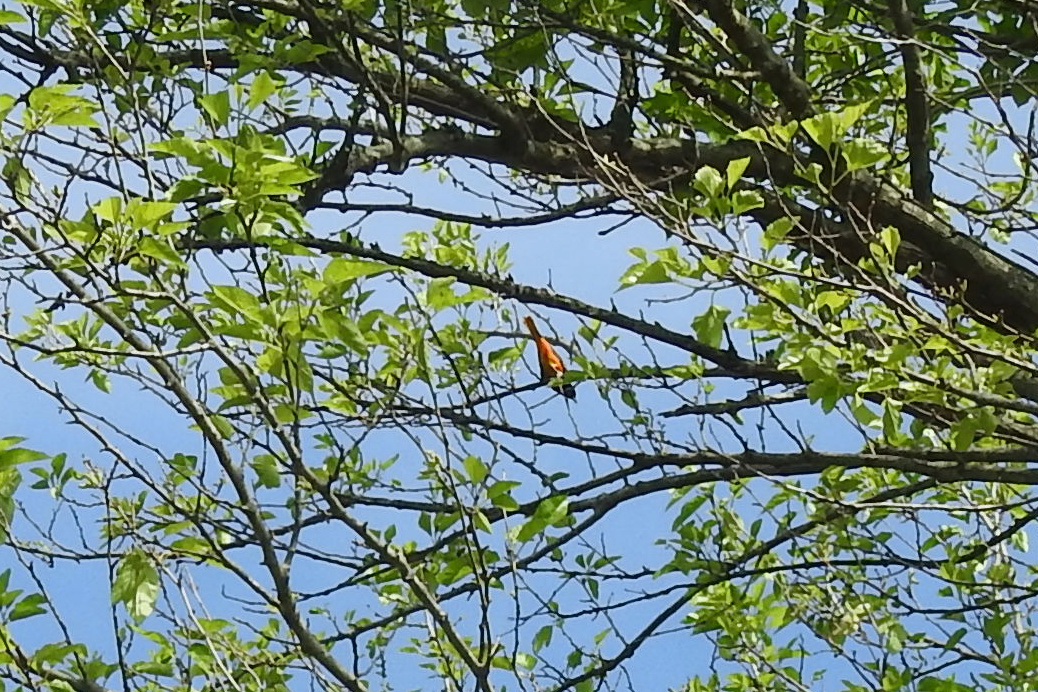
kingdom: Animalia
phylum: Chordata
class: Aves
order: Passeriformes
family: Icteridae
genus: Icterus
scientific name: Icterus galbula
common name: Baltimore oriole
